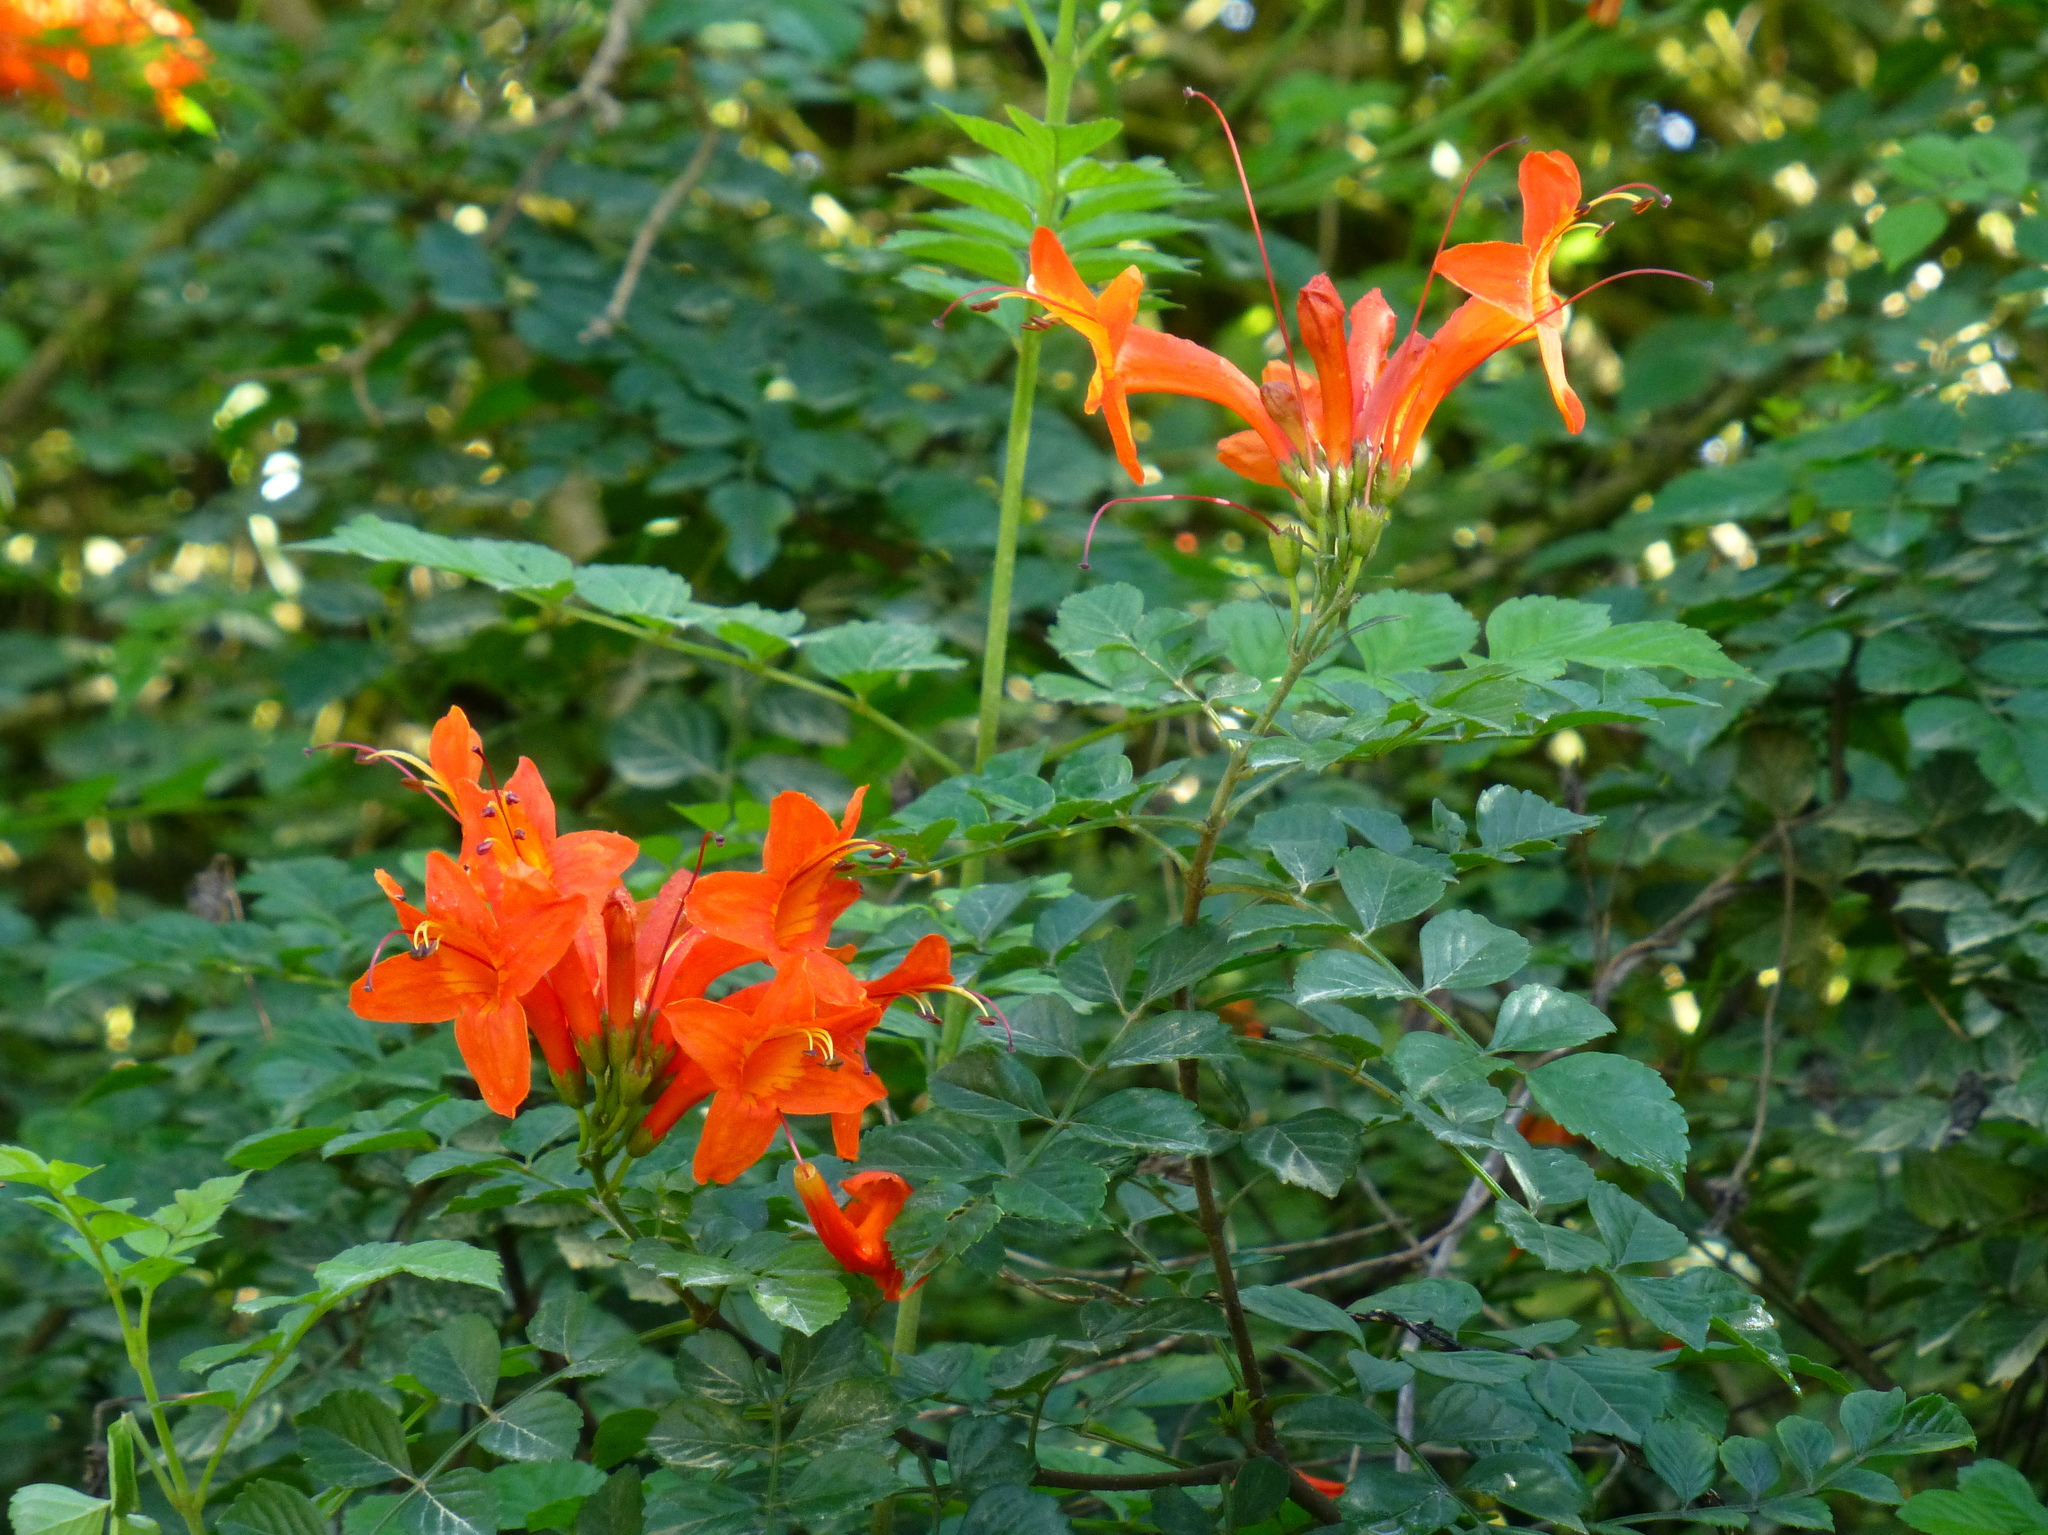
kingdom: Plantae
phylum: Tracheophyta
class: Magnoliopsida
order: Lamiales
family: Bignoniaceae
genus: Tecomaria
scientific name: Tecomaria capensis
